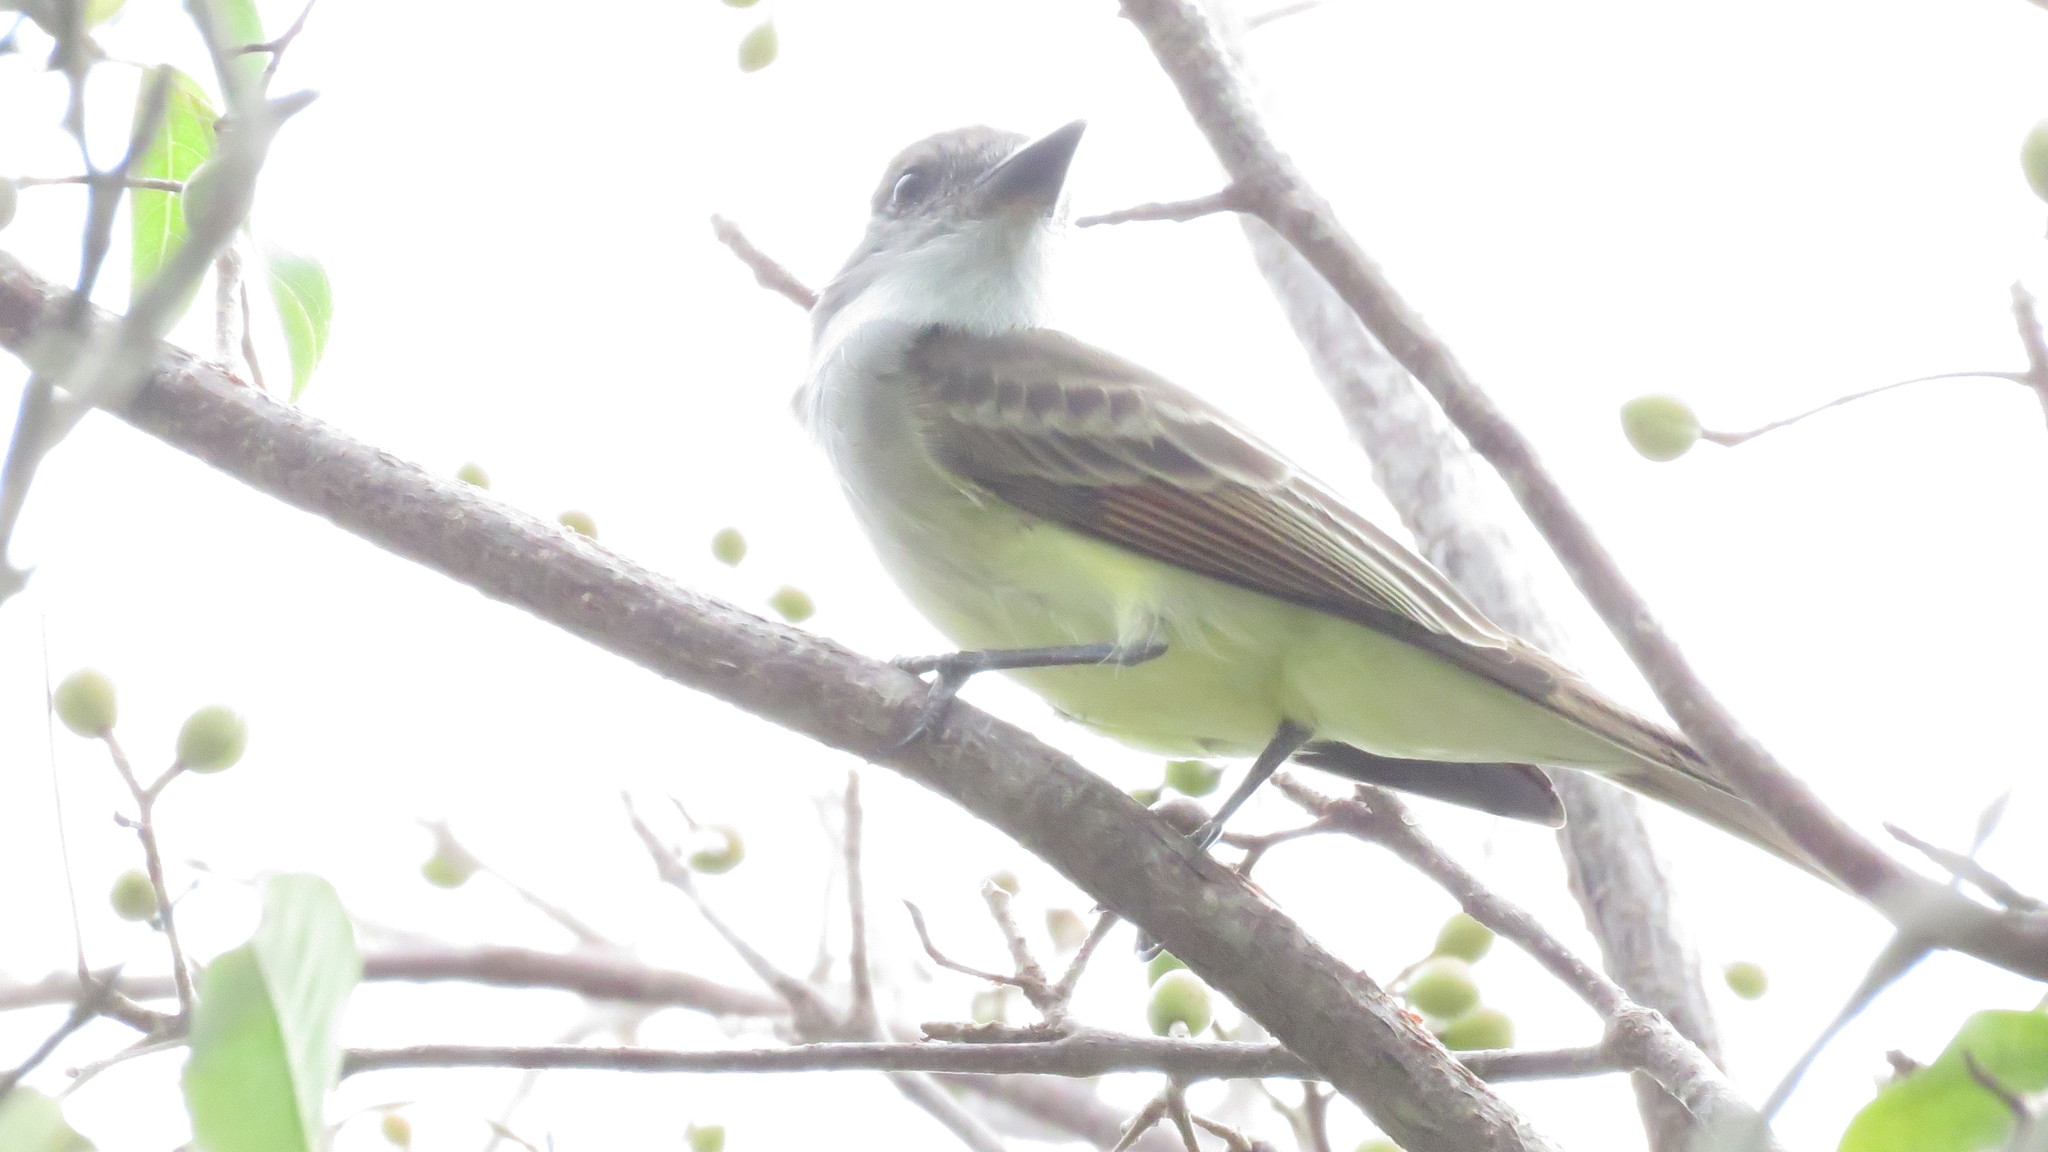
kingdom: Animalia
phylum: Chordata
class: Aves
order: Passeriformes
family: Tyrannidae
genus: Myiarchus
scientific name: Myiarchus tyrannulus
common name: Brown-crested flycatcher
